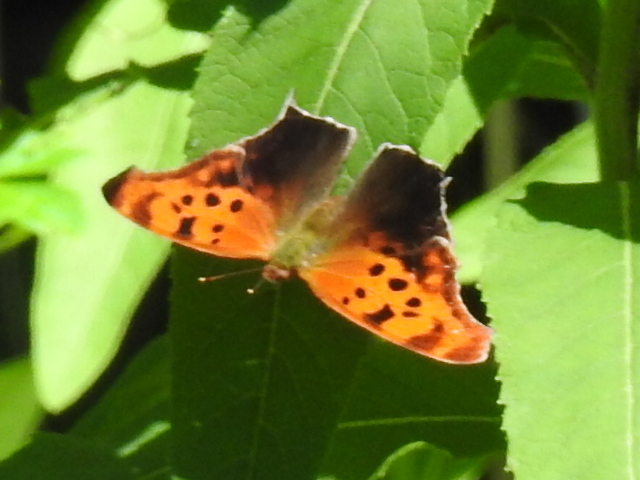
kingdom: Animalia
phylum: Arthropoda
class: Insecta
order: Lepidoptera
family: Nymphalidae
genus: Polygonia
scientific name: Polygonia interrogationis
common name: Question mark
